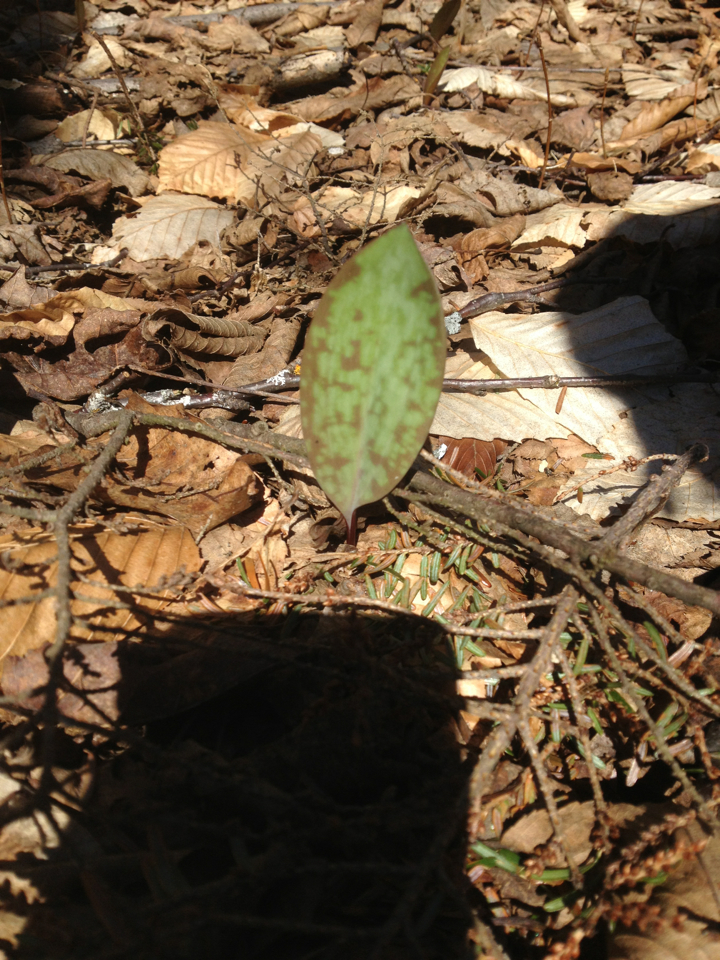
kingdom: Plantae
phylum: Tracheophyta
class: Liliopsida
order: Liliales
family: Liliaceae
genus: Erythronium
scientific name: Erythronium americanum
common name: Yellow adder's-tongue
